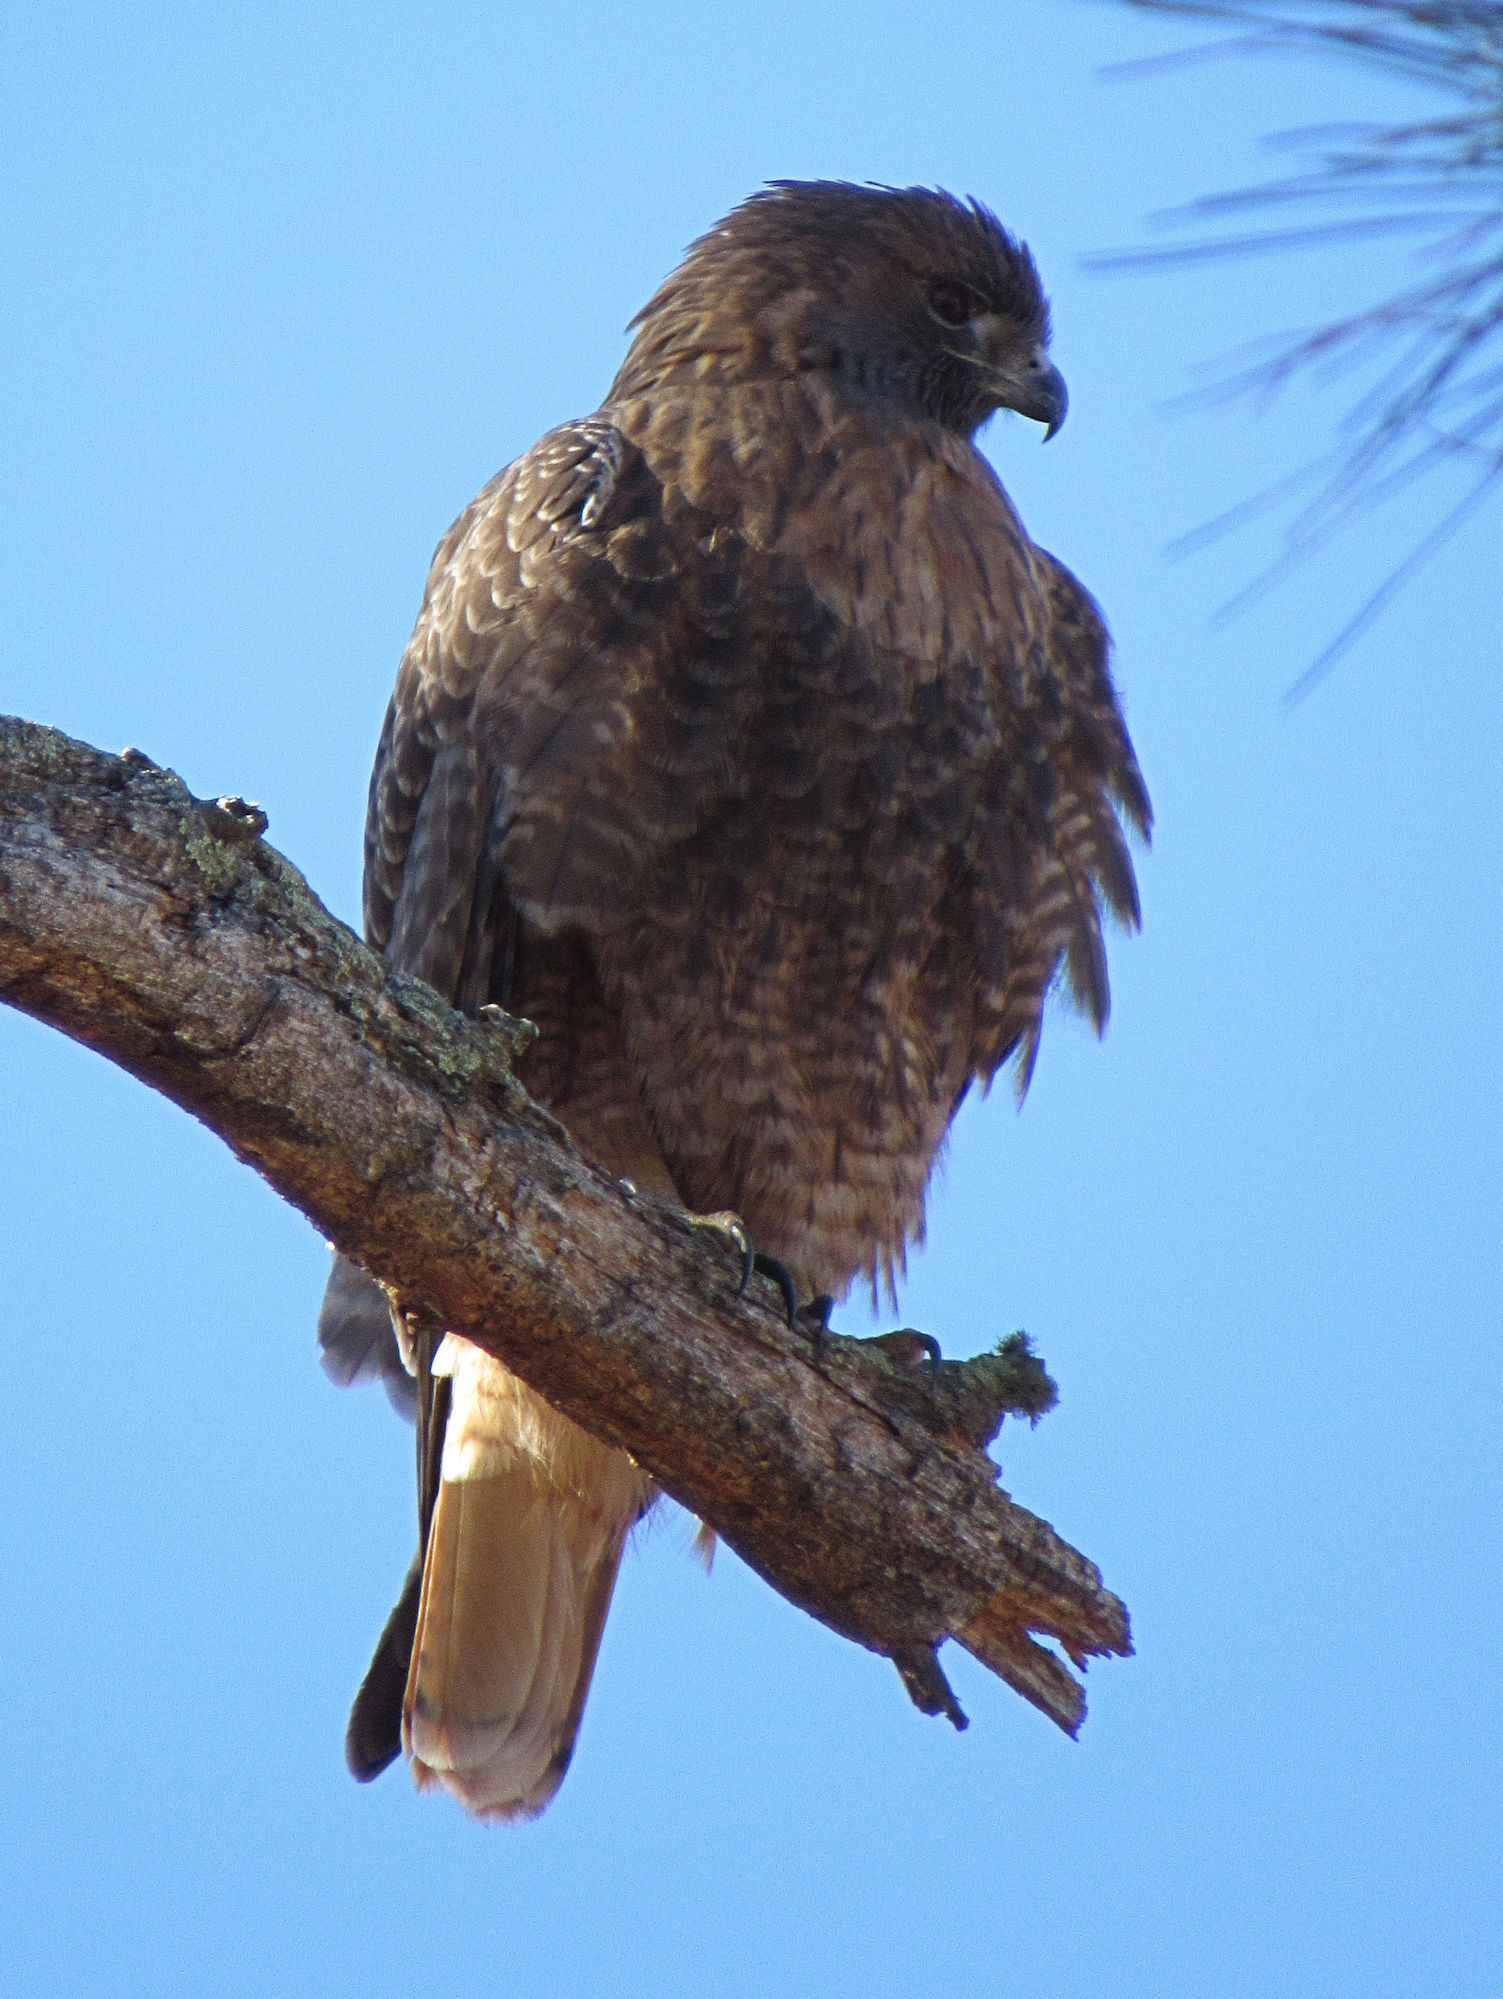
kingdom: Animalia
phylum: Chordata
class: Aves
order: Accipitriformes
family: Accipitridae
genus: Buteo
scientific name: Buteo jamaicensis
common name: Red-tailed hawk
